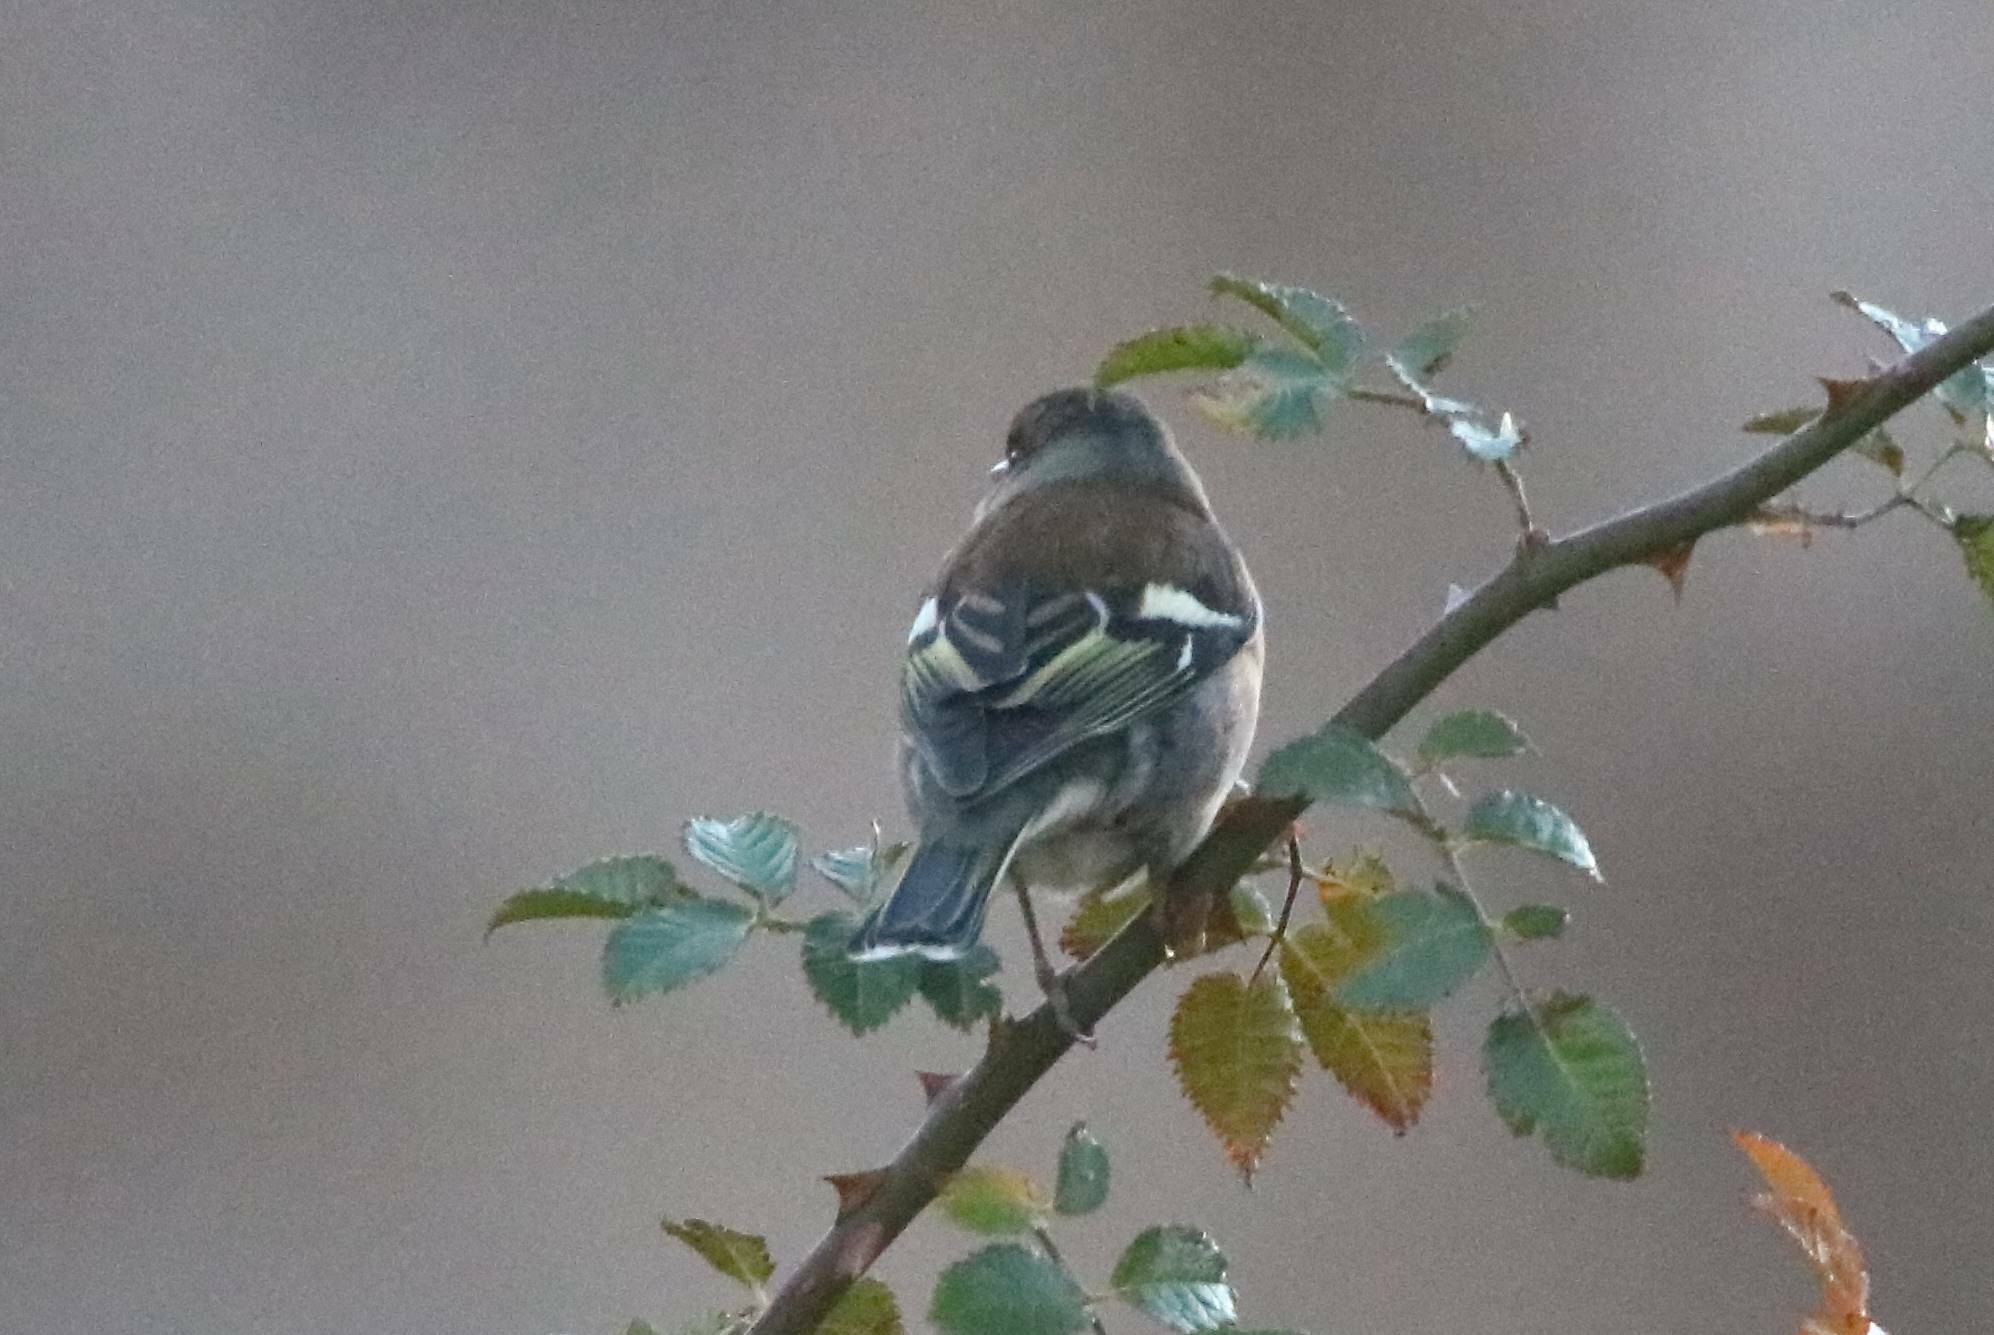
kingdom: Animalia
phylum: Chordata
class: Aves
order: Passeriformes
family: Fringillidae
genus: Fringilla
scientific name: Fringilla coelebs
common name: Common chaffinch
